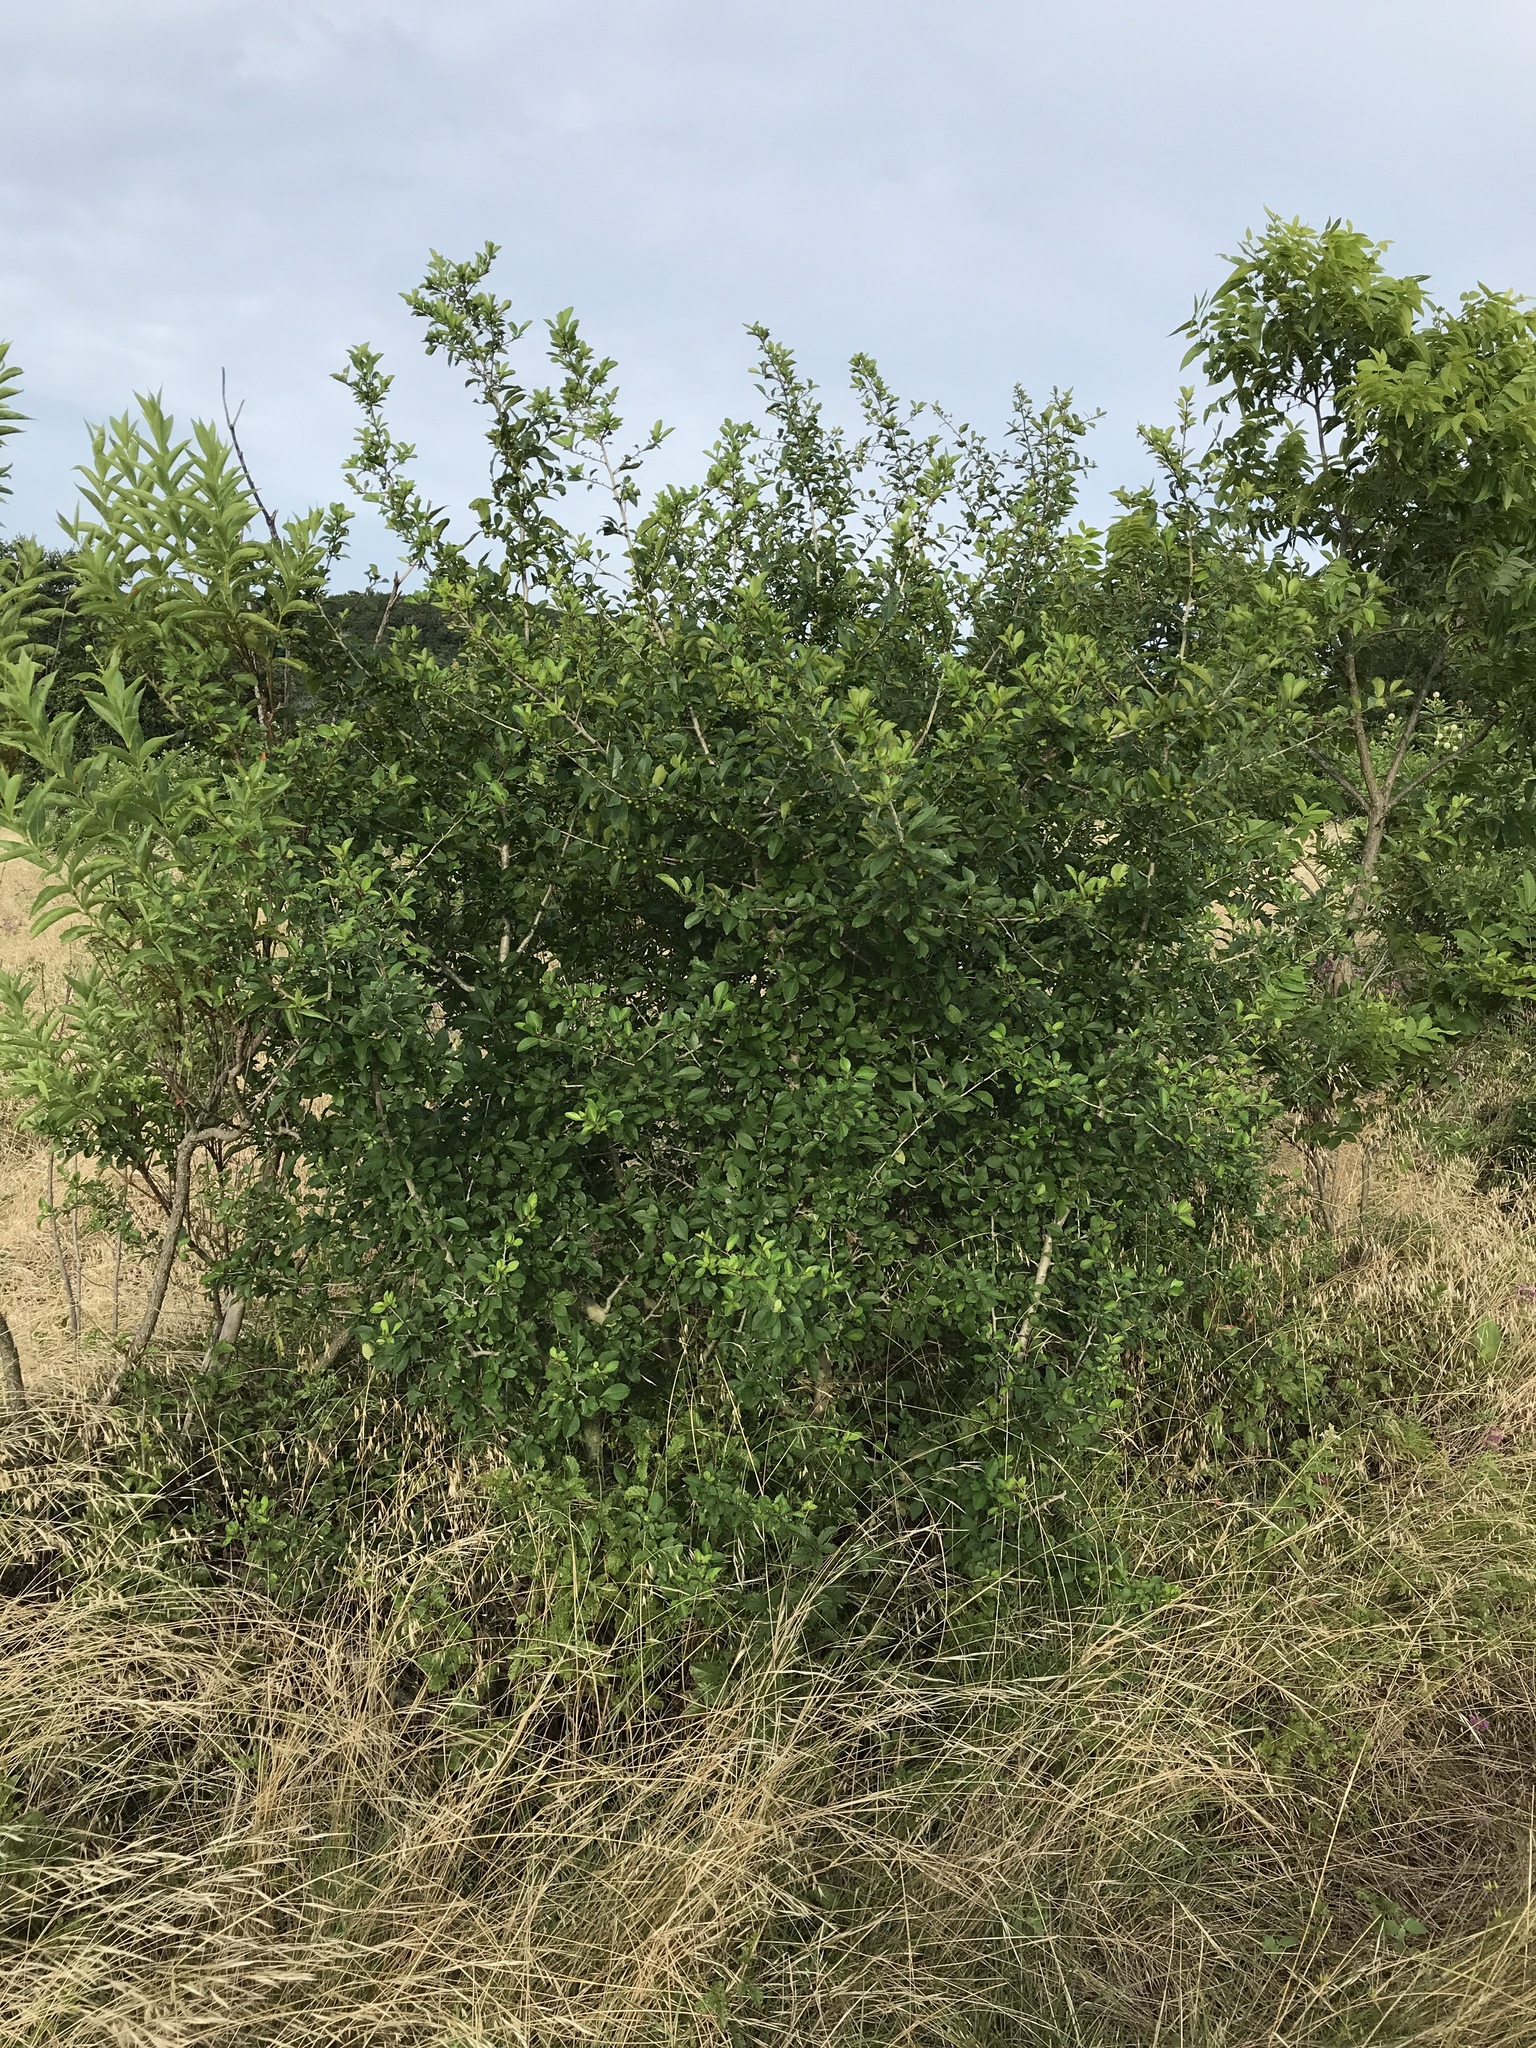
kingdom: Plantae
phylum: Tracheophyta
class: Magnoliopsida
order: Aquifoliales
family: Aquifoliaceae
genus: Ilex
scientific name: Ilex decidua
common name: Possum-haw
